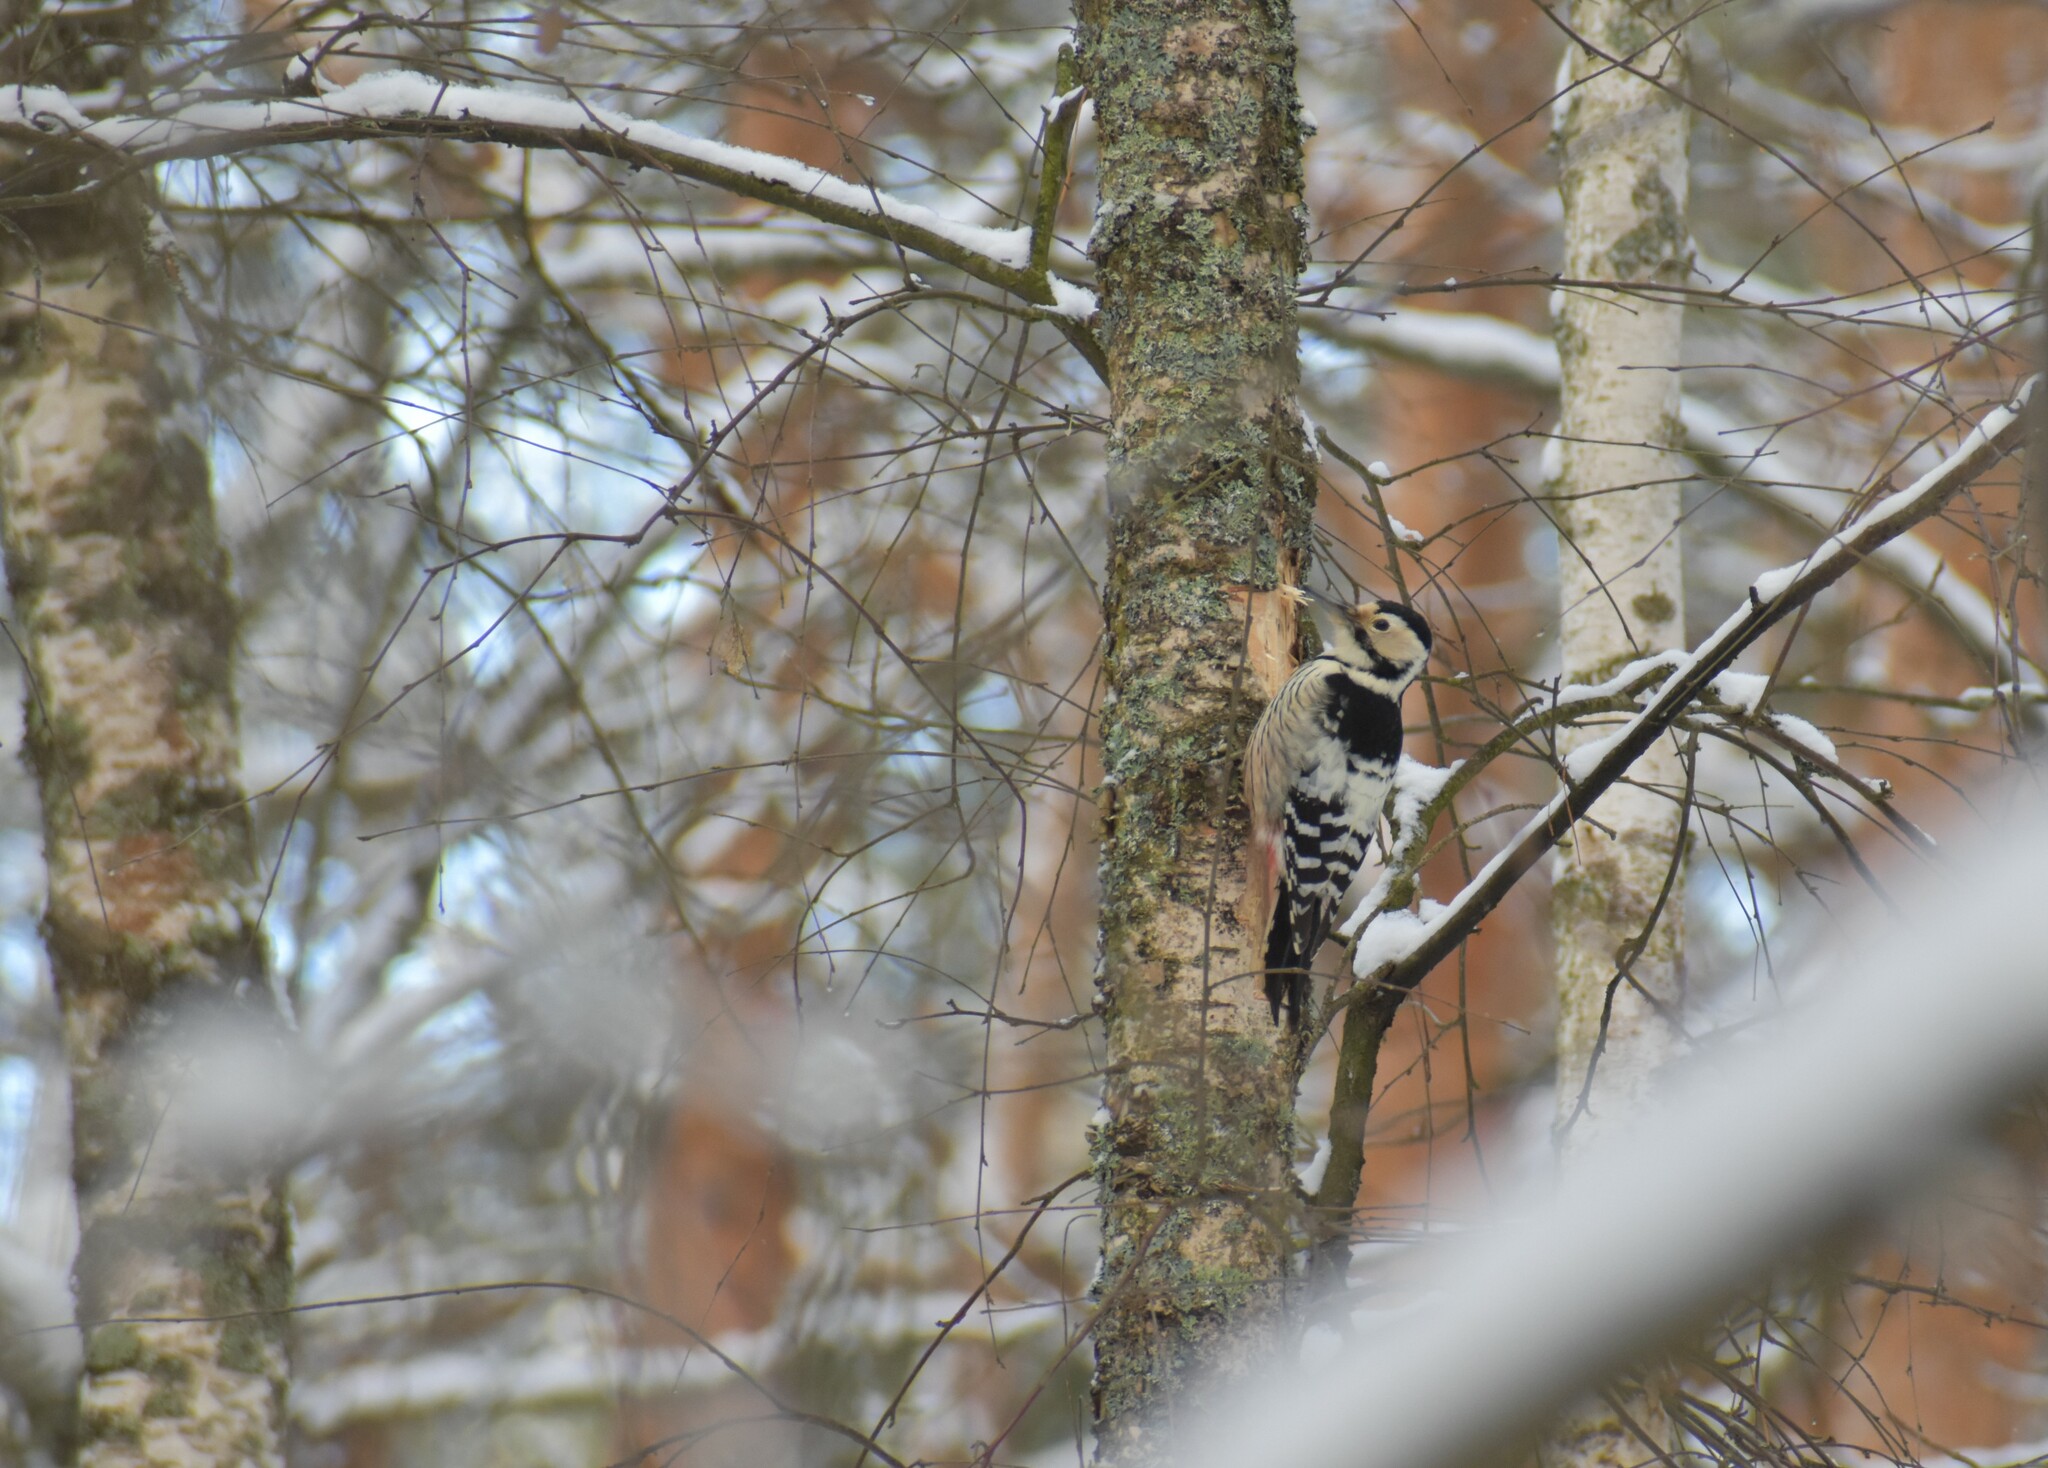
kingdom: Animalia
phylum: Chordata
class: Aves
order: Piciformes
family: Picidae
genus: Dendrocopos
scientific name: Dendrocopos leucotos
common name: White-backed woodpecker
